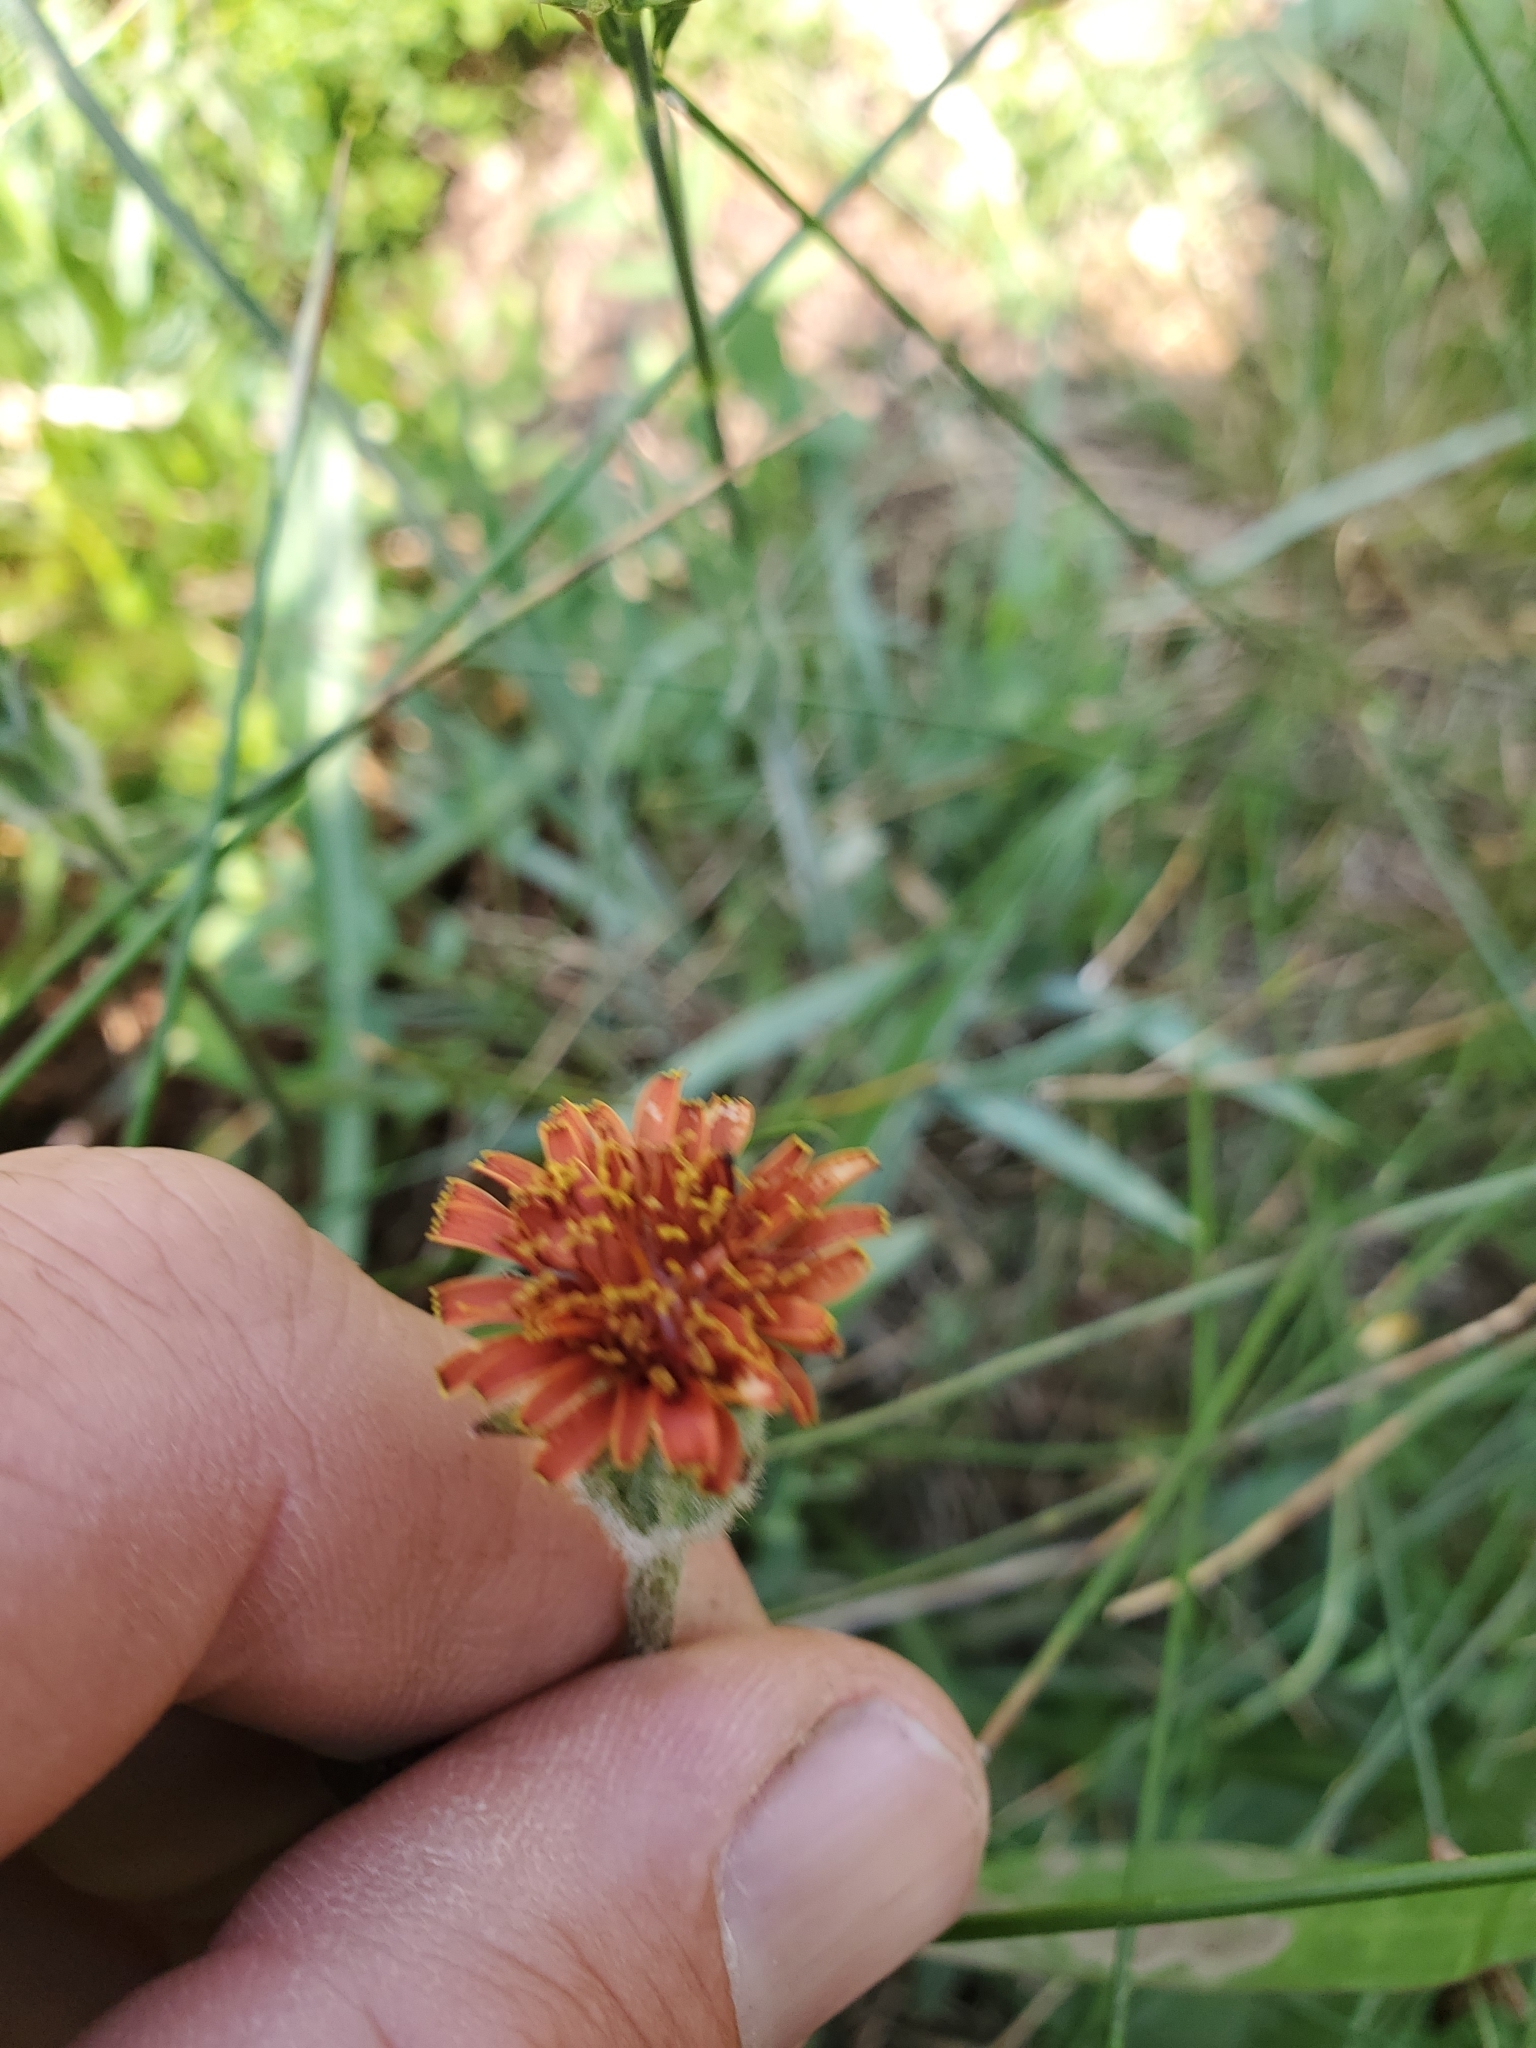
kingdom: Plantae
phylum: Tracheophyta
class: Magnoliopsida
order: Asterales
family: Asteraceae
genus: Agoseris
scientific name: Agoseris aurantiaca
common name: Mountain agoseris
